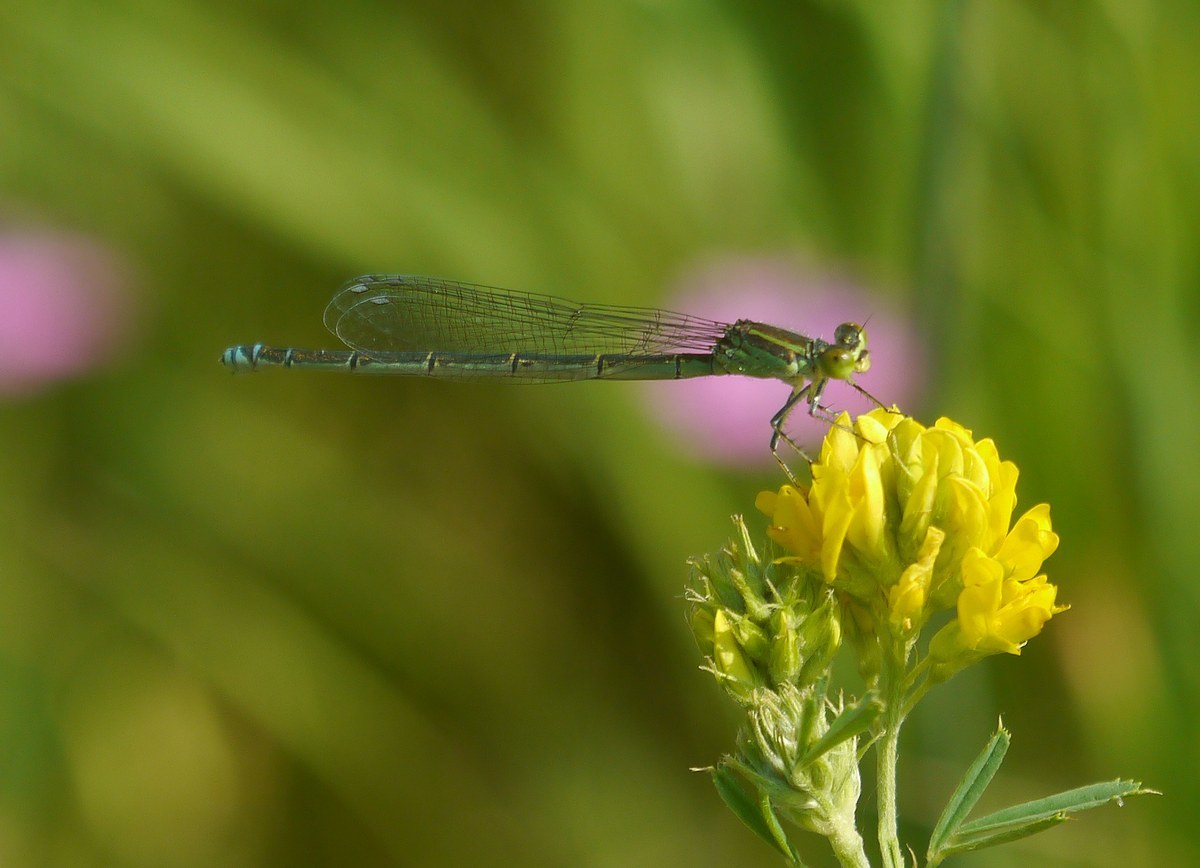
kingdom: Animalia
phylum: Arthropoda
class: Insecta
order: Odonata
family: Coenagrionidae
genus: Erythromma
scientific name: Erythromma viridulum
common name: Small red-eyed damselfly
